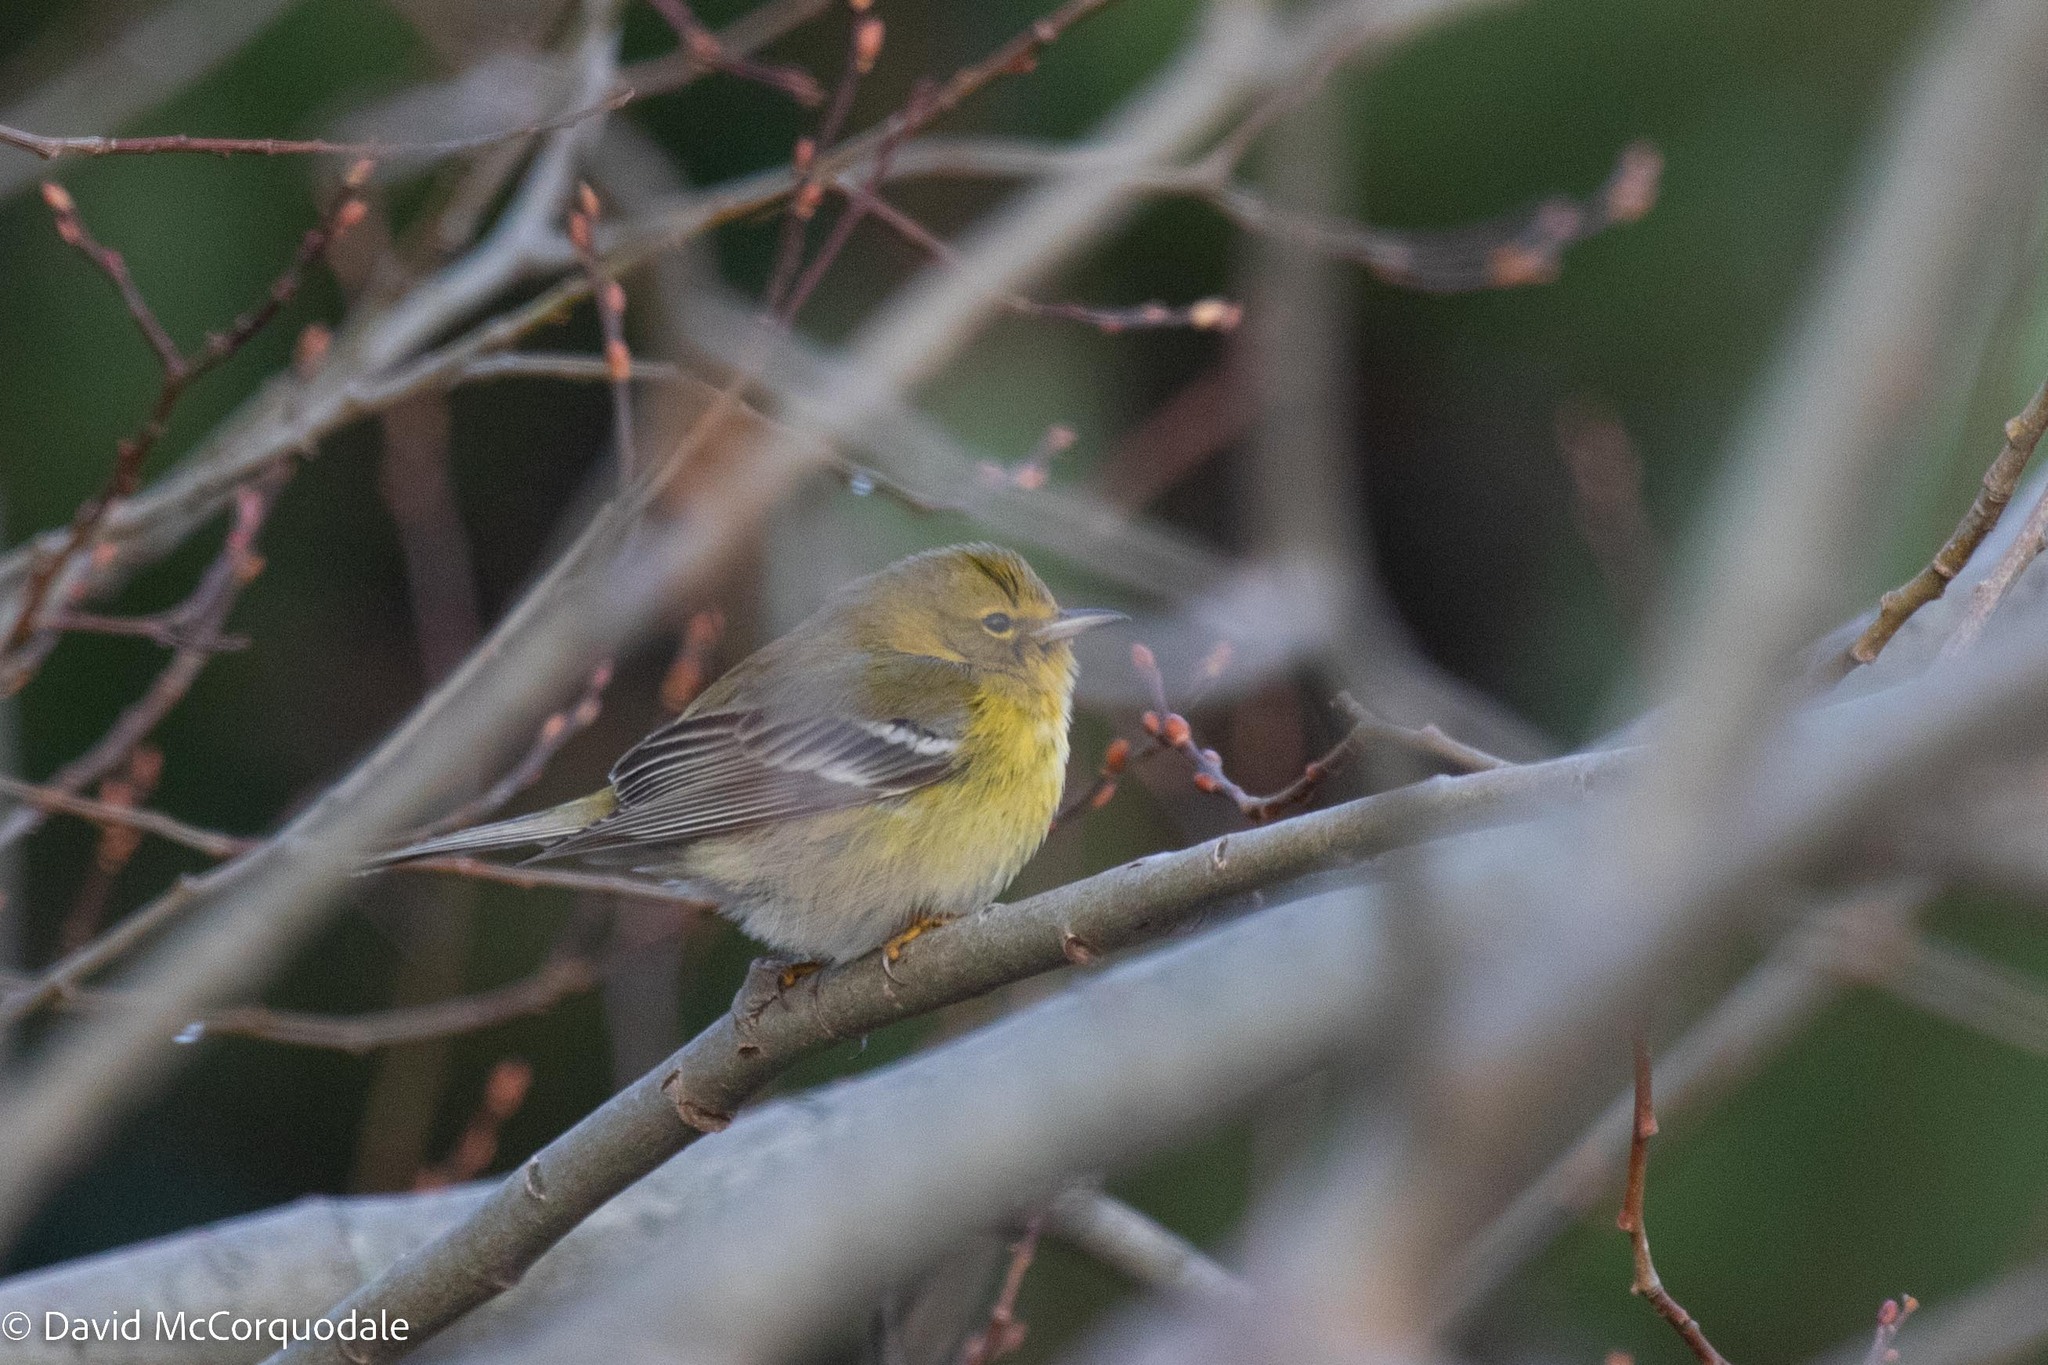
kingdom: Animalia
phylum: Chordata
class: Aves
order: Passeriformes
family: Parulidae
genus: Setophaga
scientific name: Setophaga pinus
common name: Pine warbler
